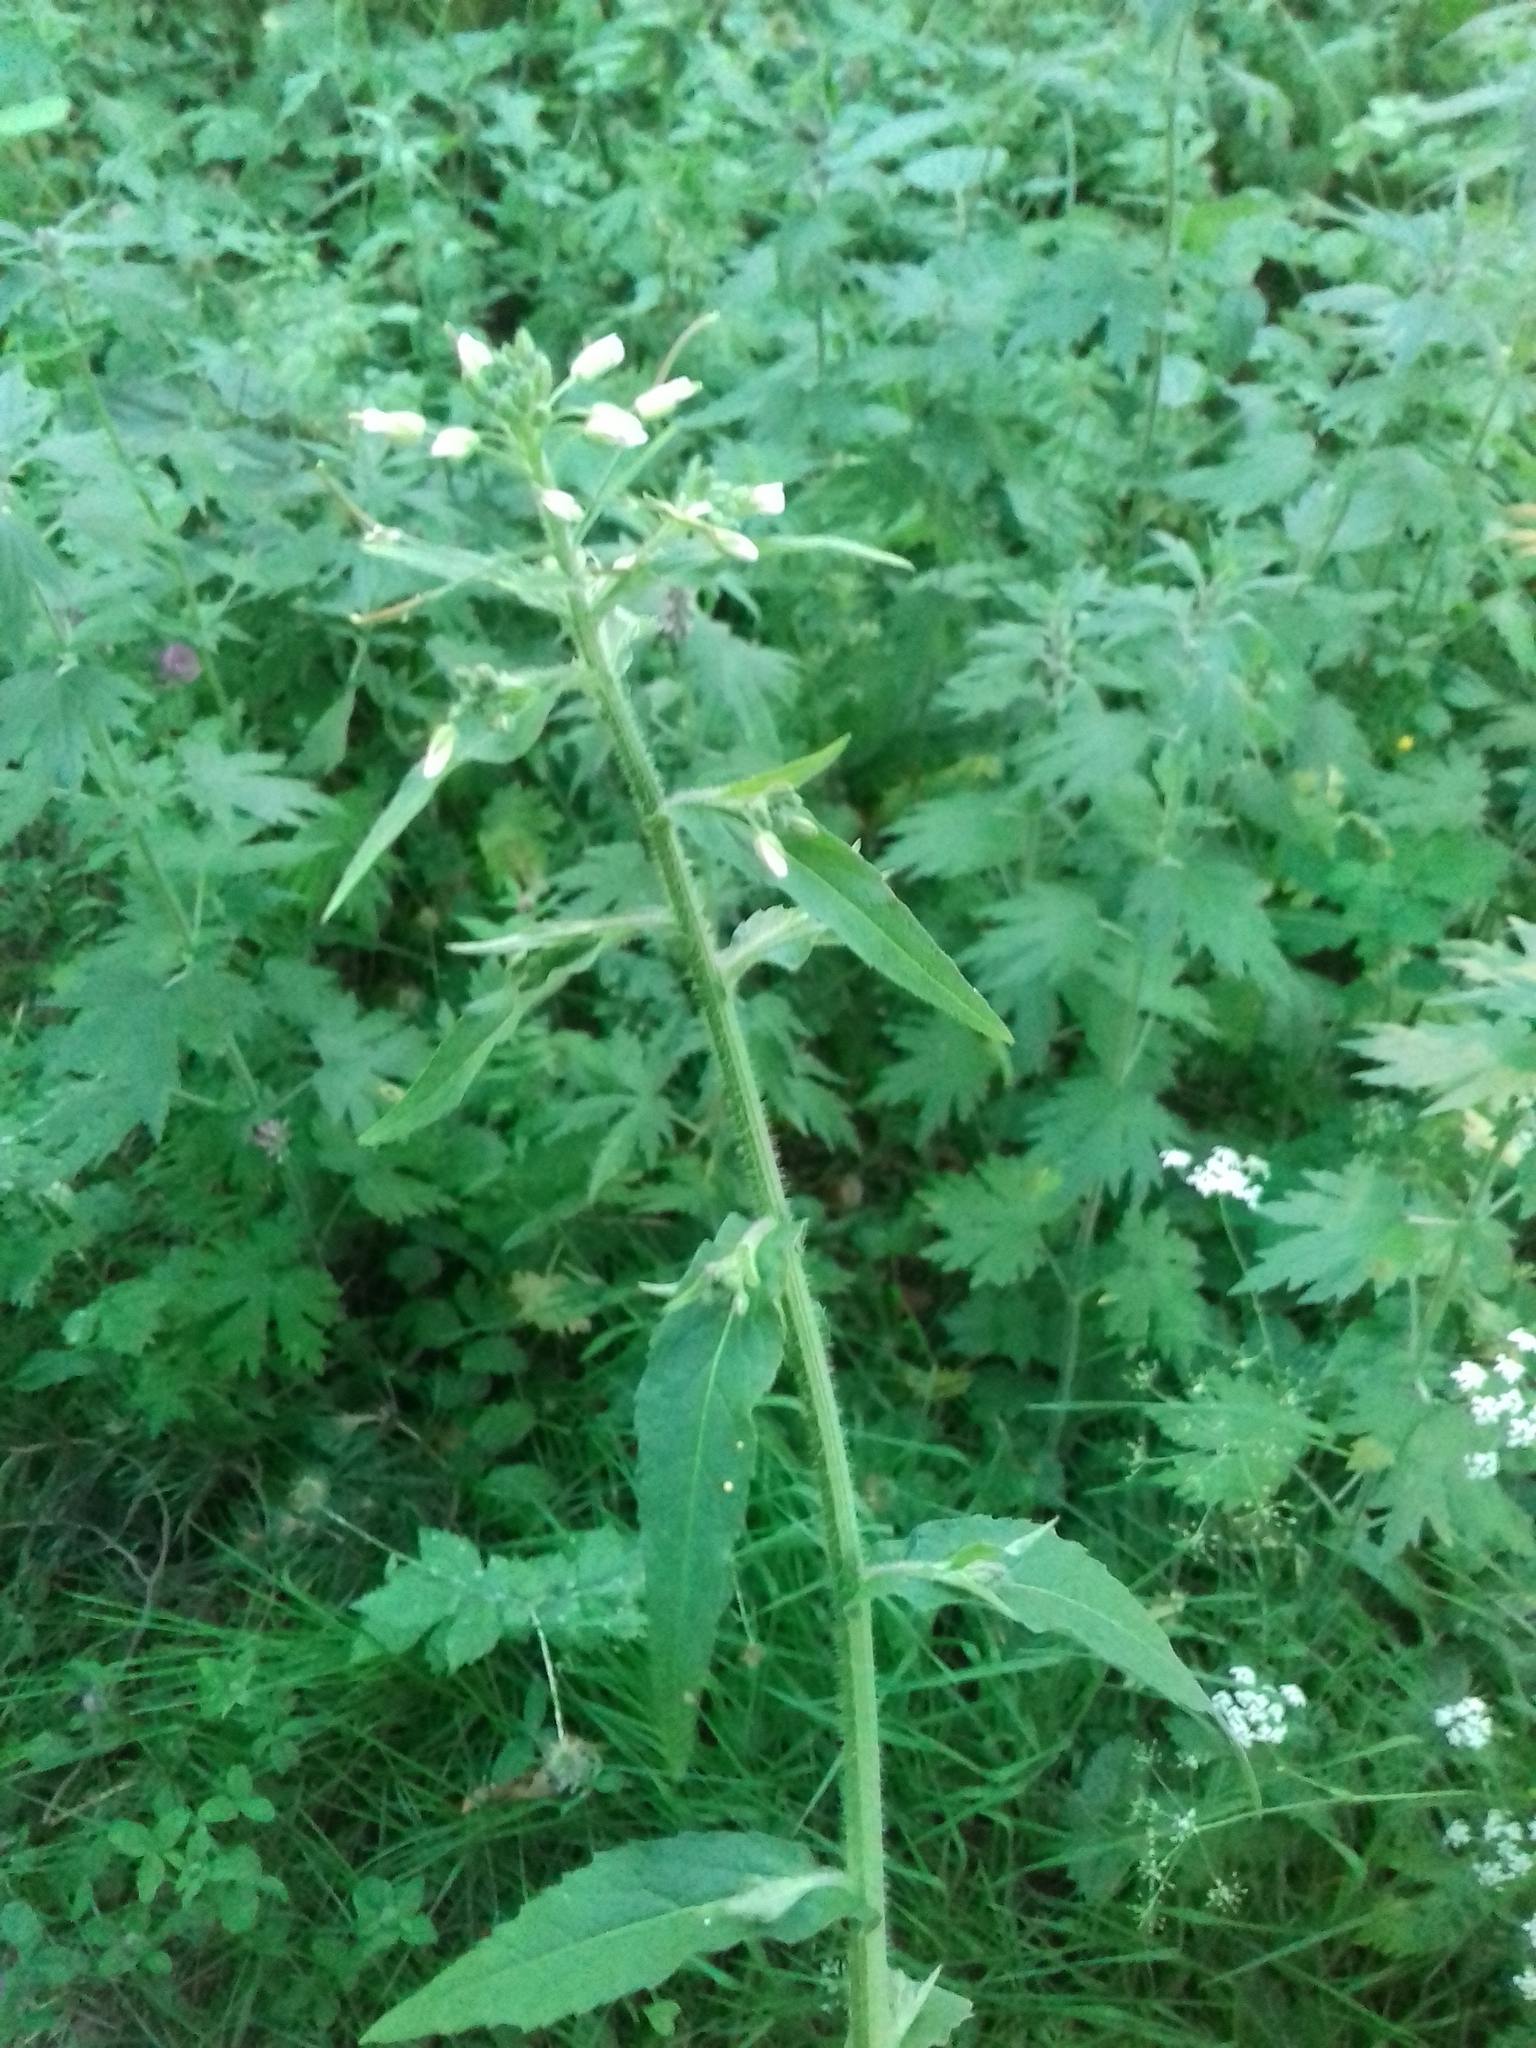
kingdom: Plantae
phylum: Tracheophyta
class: Magnoliopsida
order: Brassicales
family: Brassicaceae
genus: Catolobus
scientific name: Catolobus pendulus
